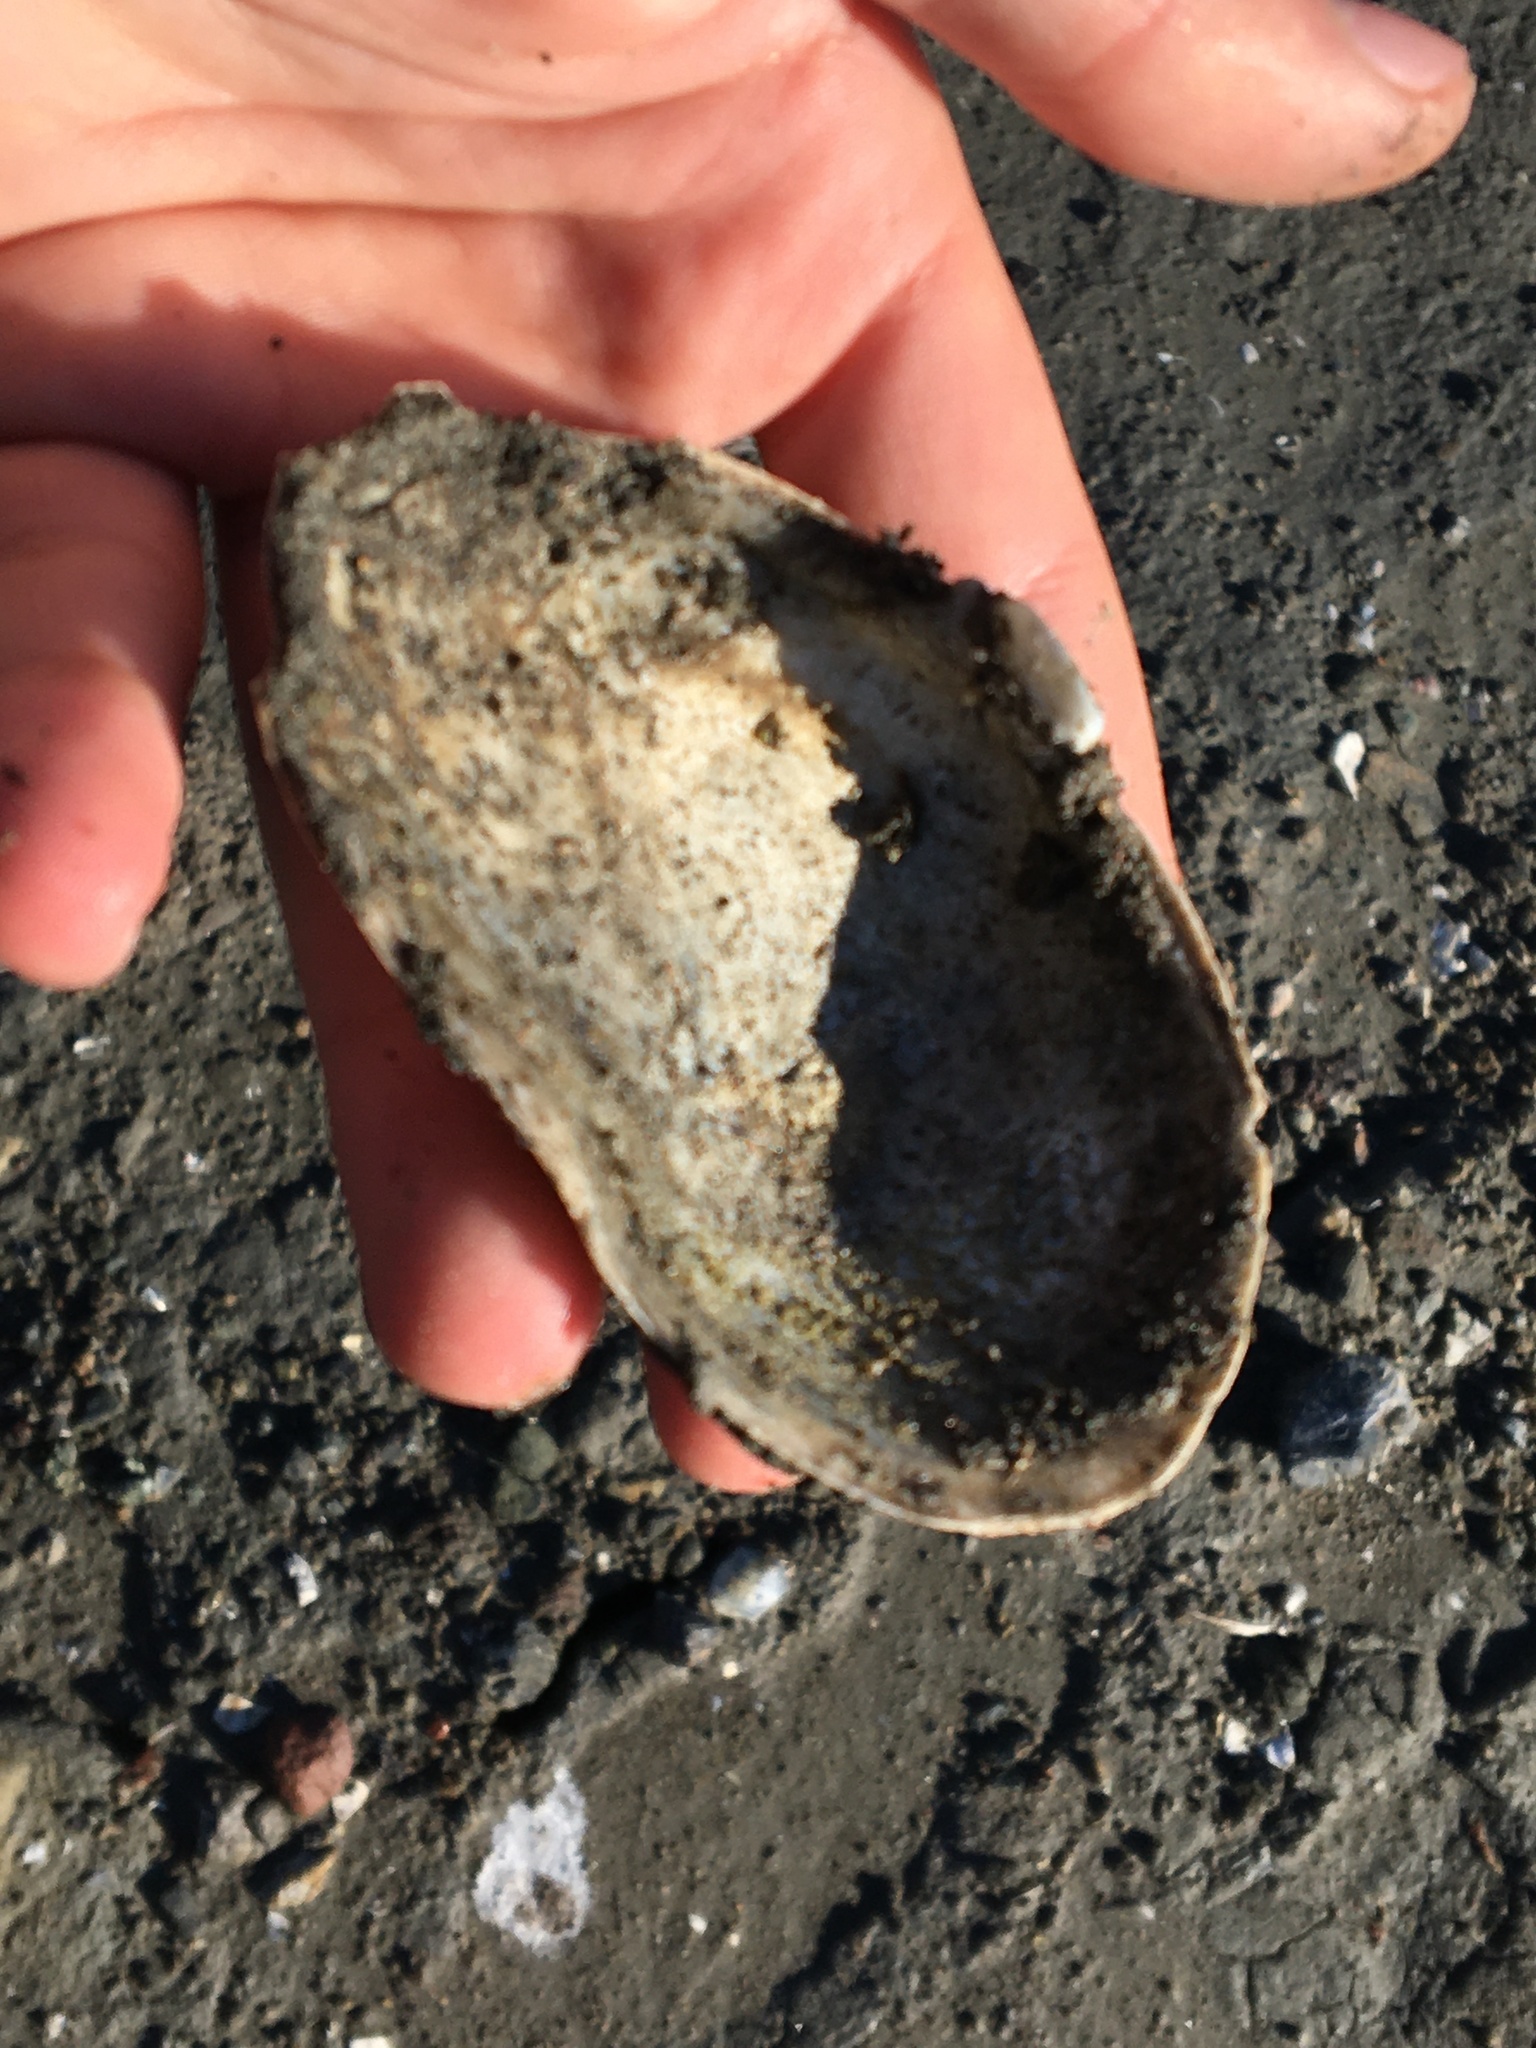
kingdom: Animalia
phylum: Mollusca
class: Bivalvia
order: Myida
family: Myidae
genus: Mya
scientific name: Mya arenaria
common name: Soft-shelled clam
